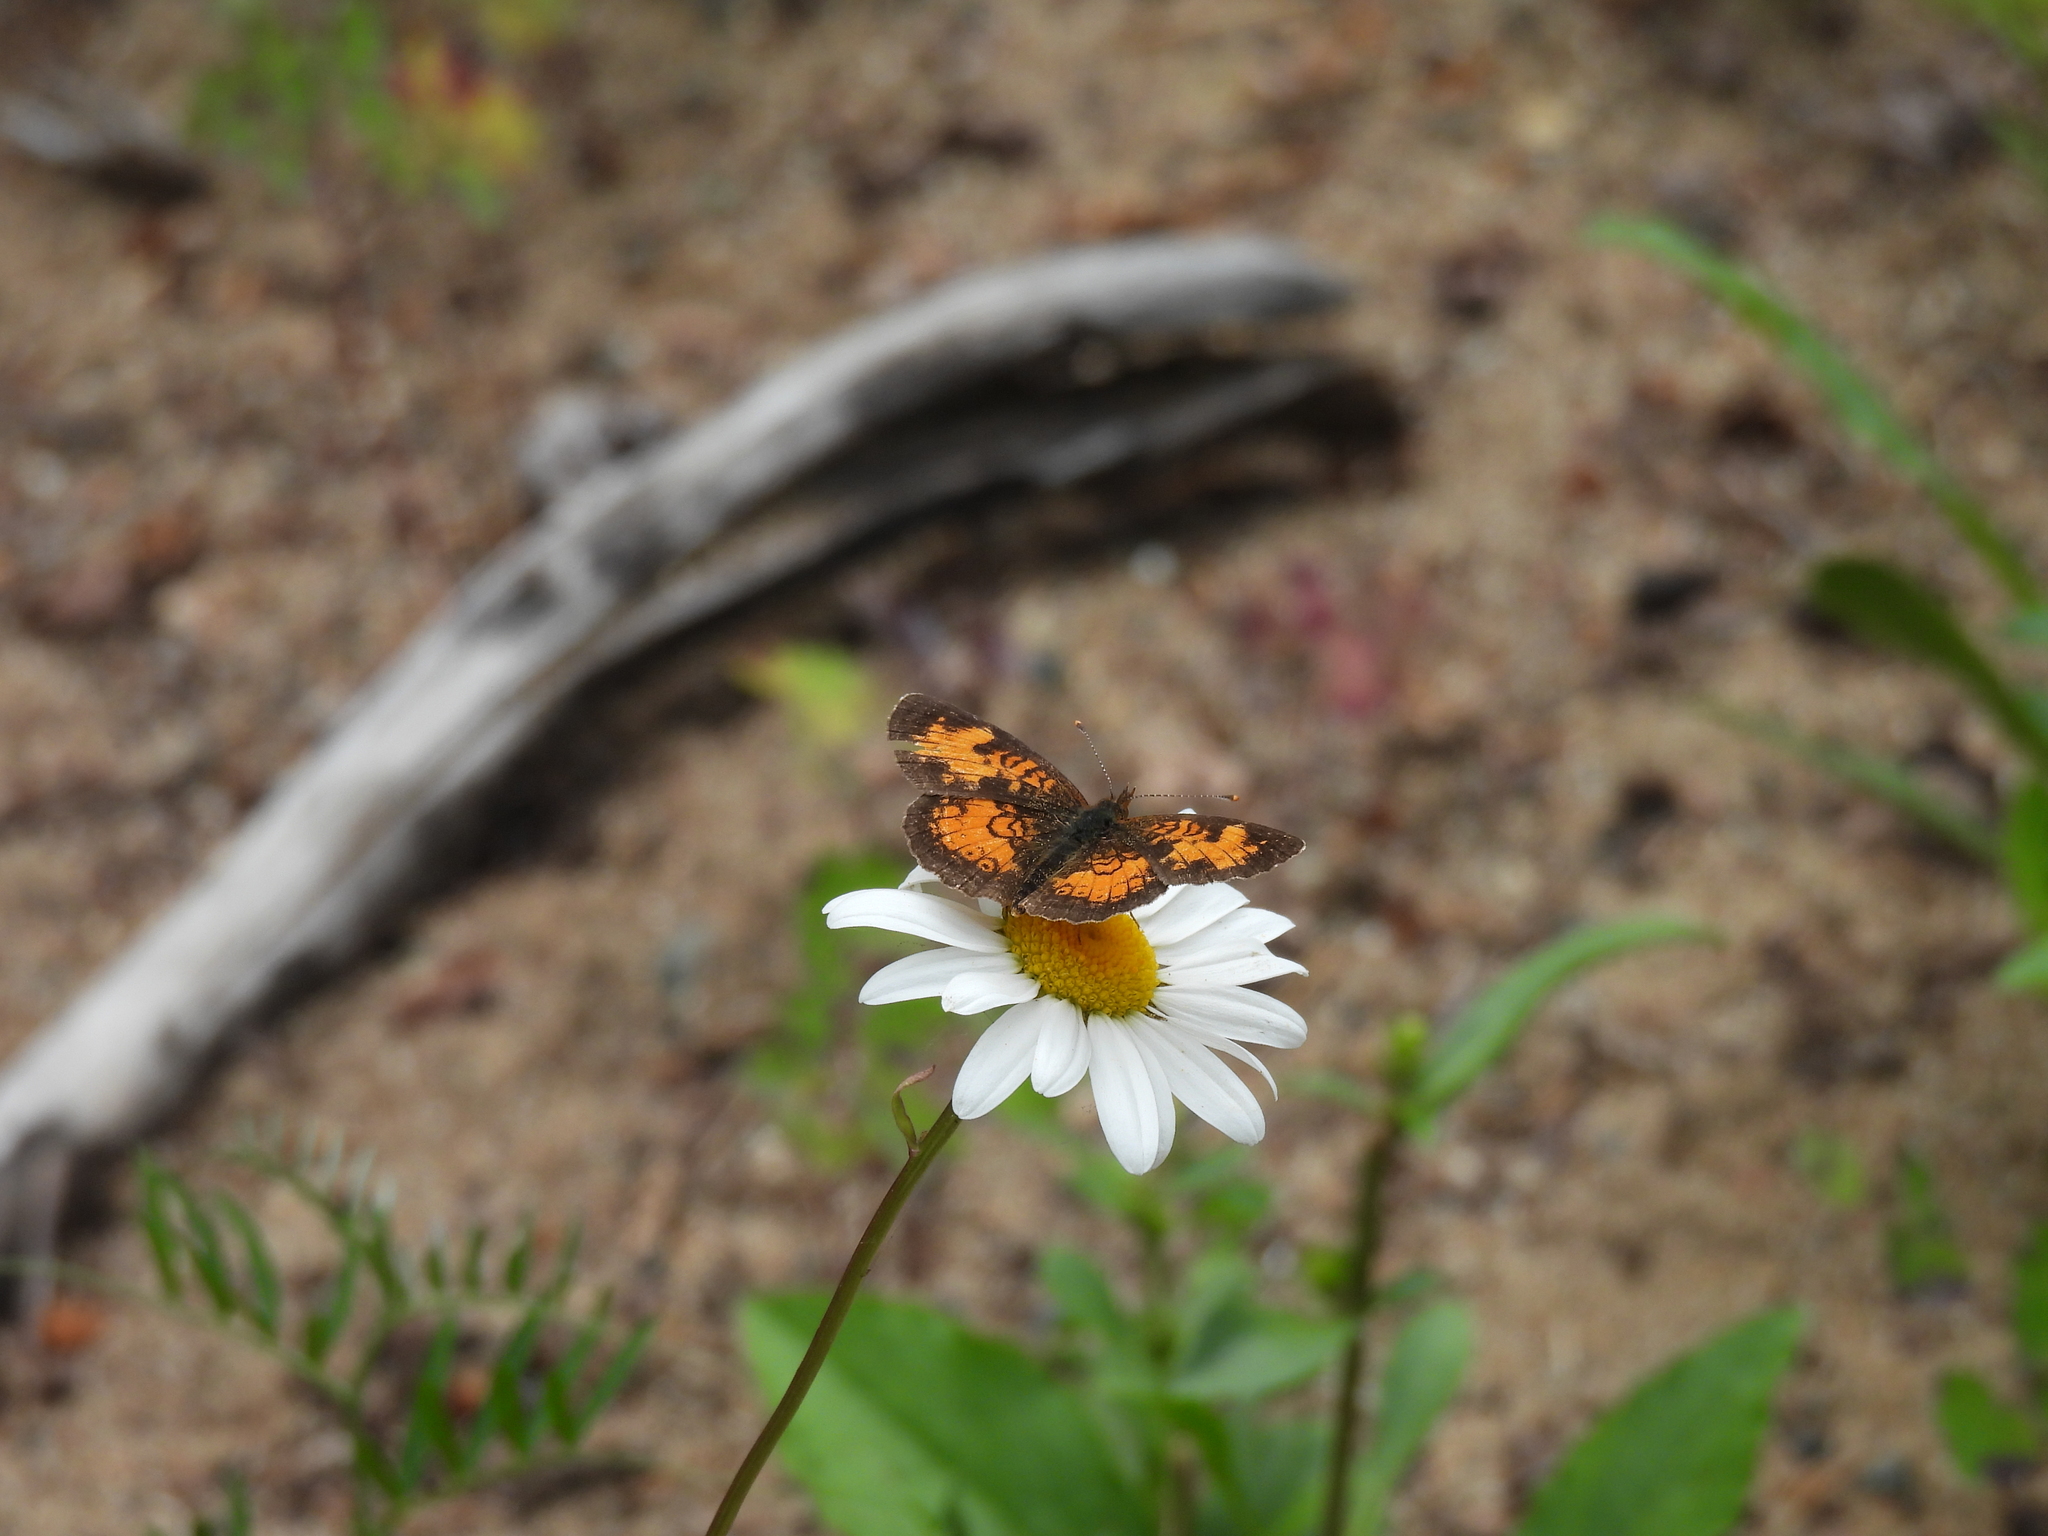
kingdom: Animalia
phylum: Arthropoda
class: Insecta
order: Lepidoptera
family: Nymphalidae
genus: Phyciodes
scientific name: Phyciodes tharos
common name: Pearl crescent
